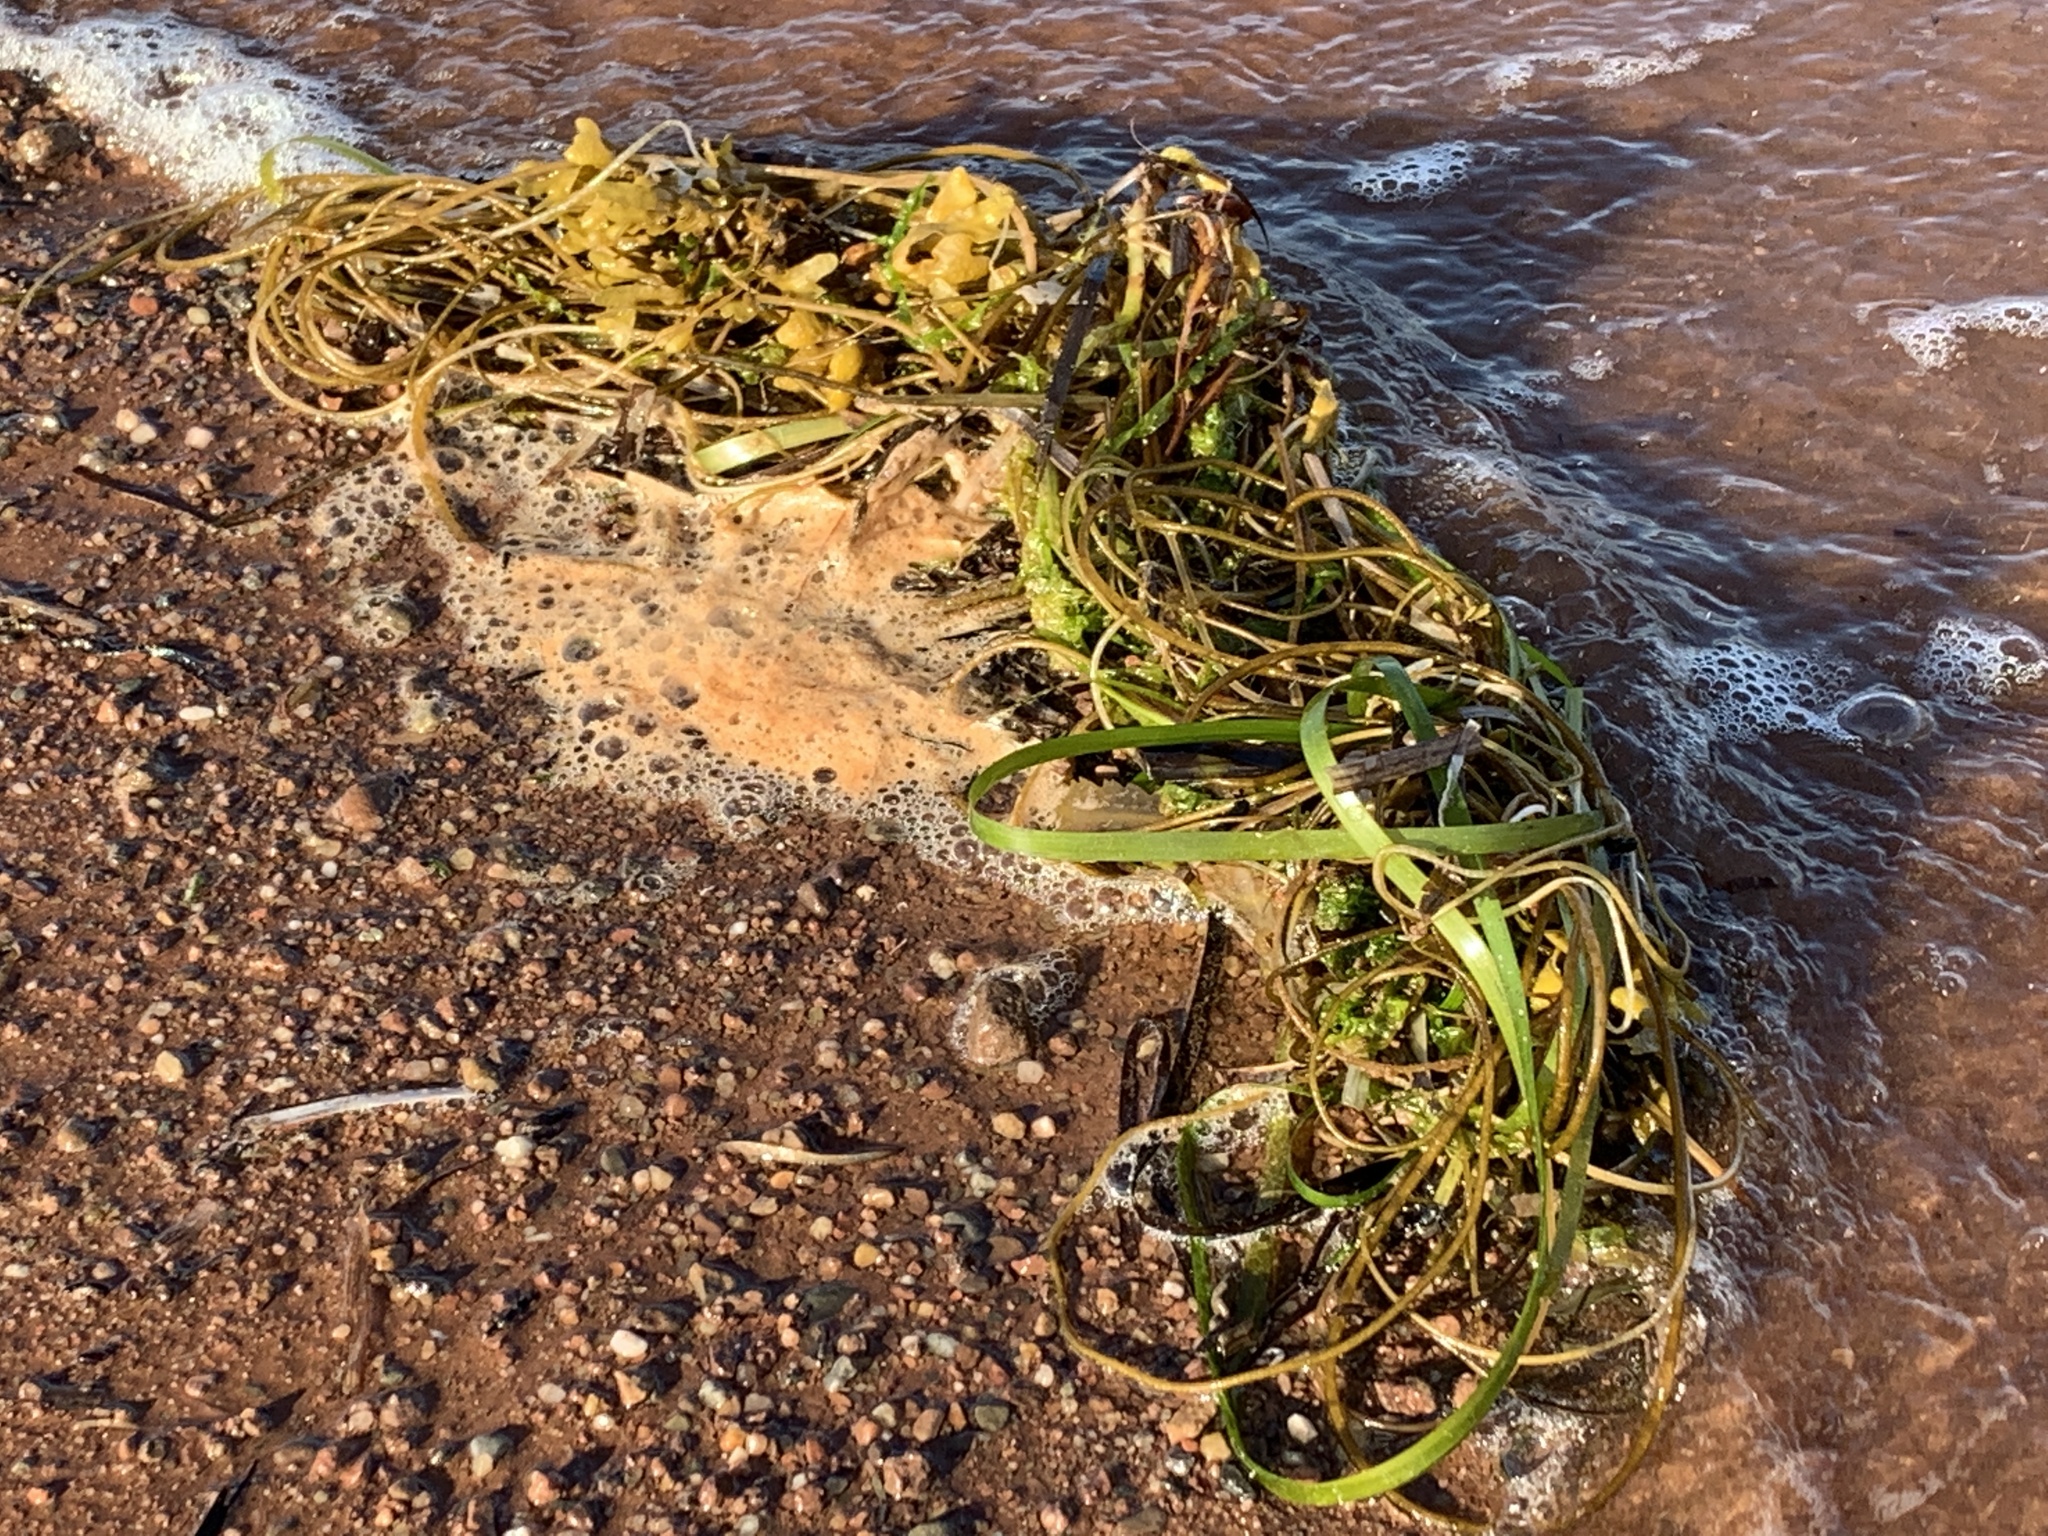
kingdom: Plantae
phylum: Tracheophyta
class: Liliopsida
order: Alismatales
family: Zosteraceae
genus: Zostera
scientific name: Zostera marina
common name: Eelgrass
